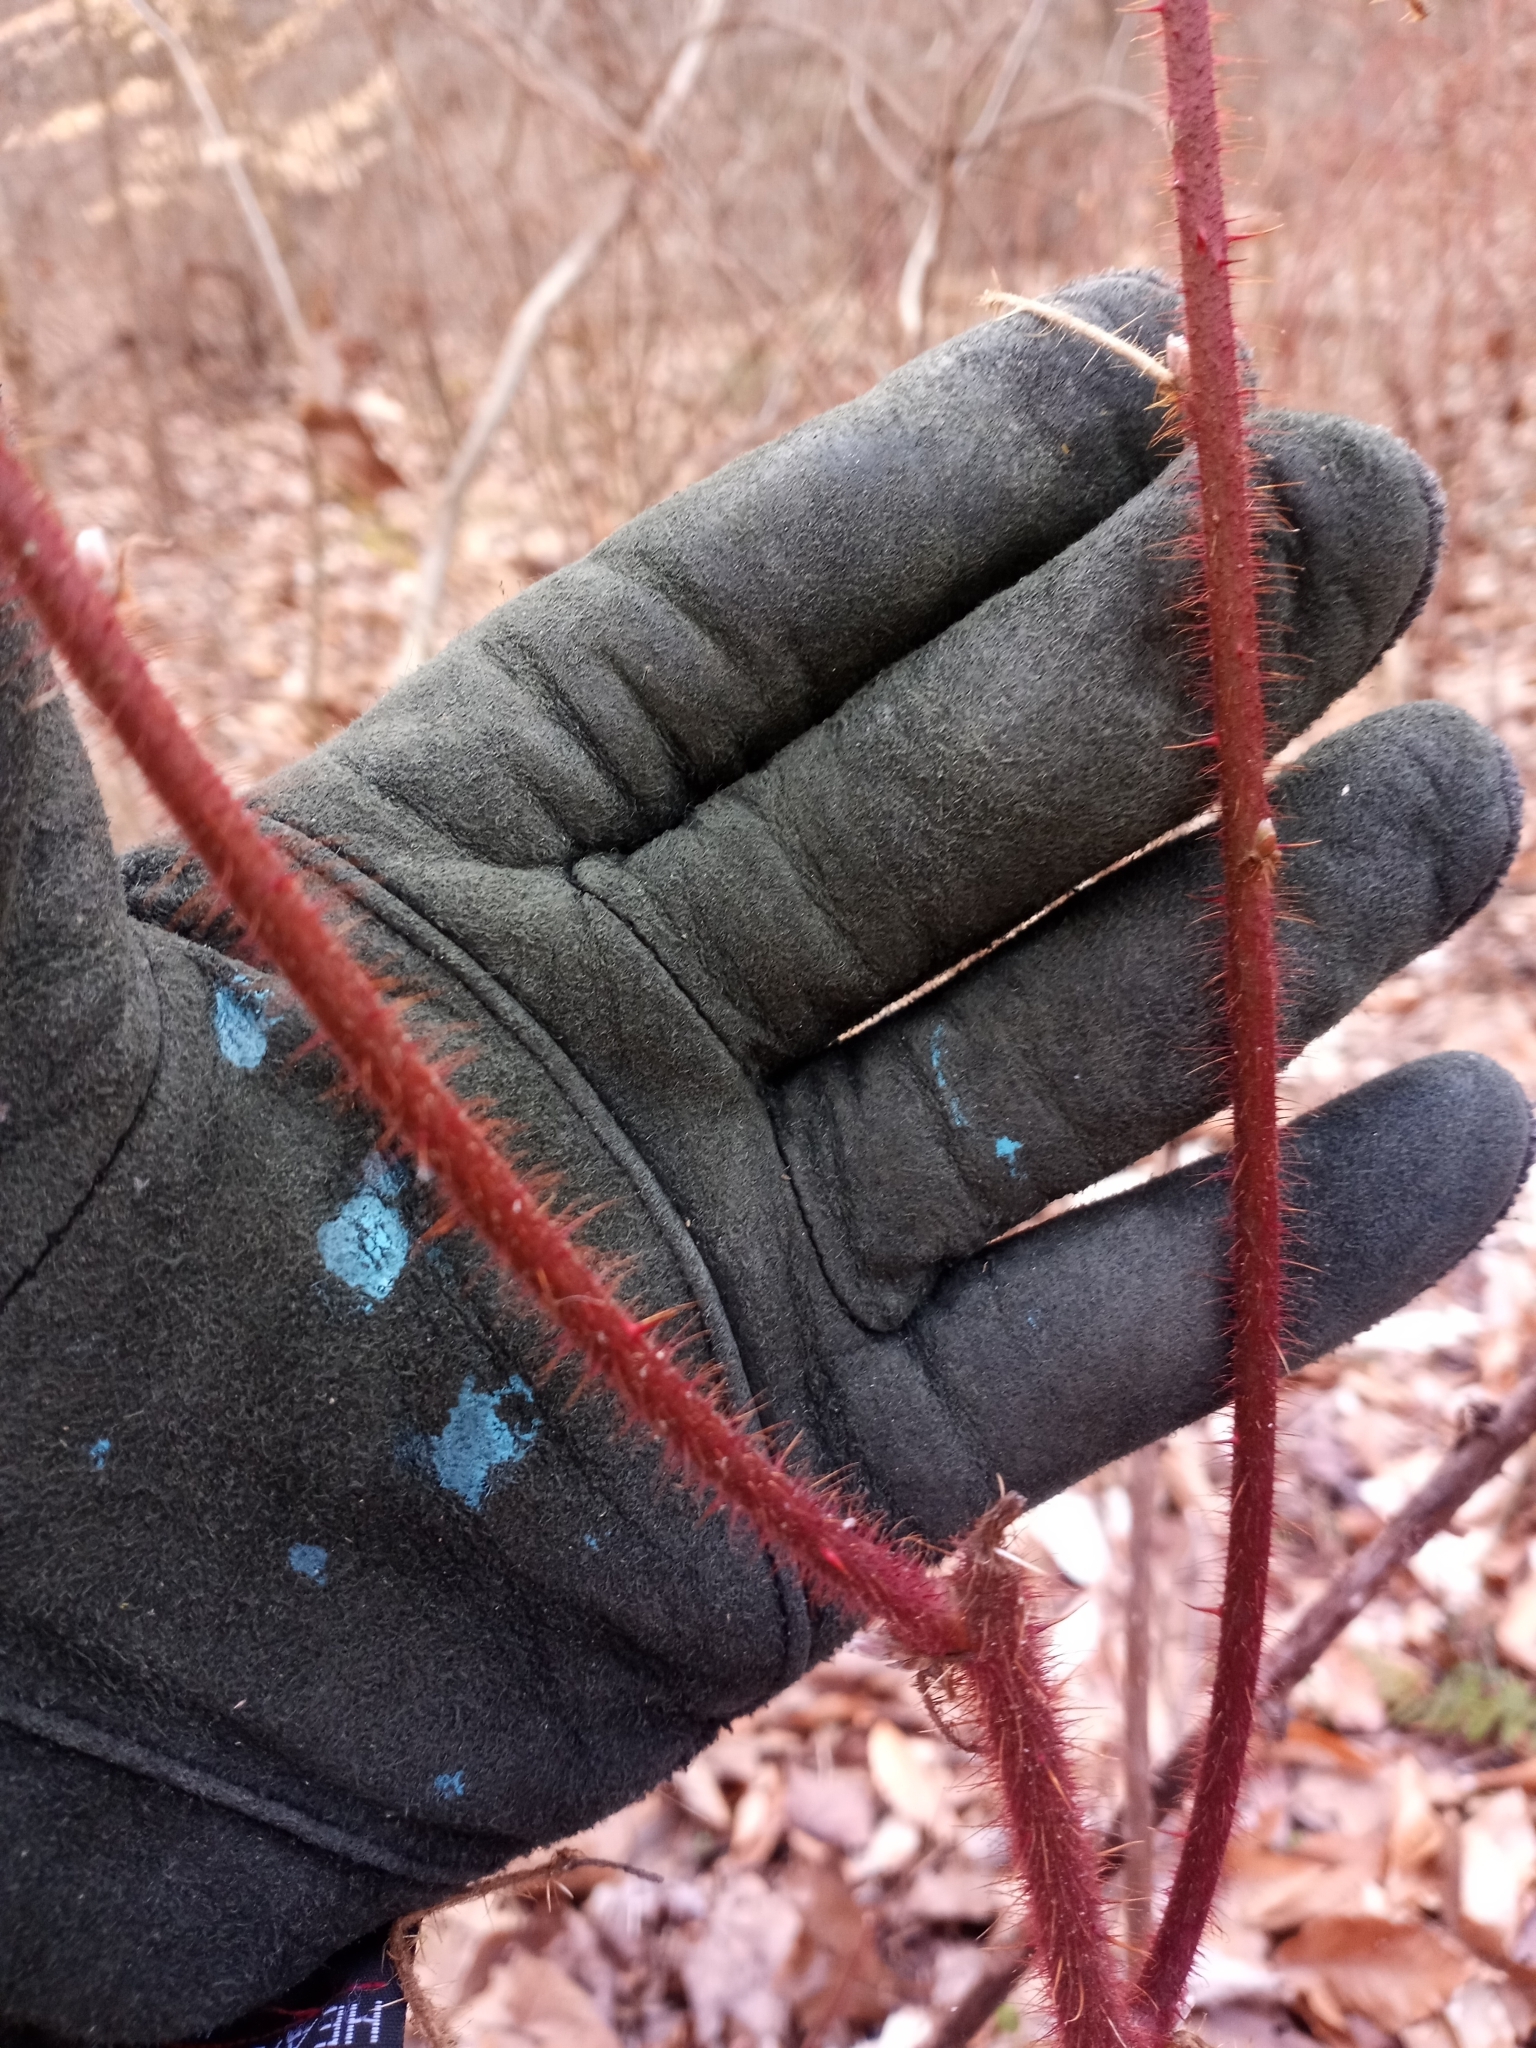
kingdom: Plantae
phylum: Tracheophyta
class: Magnoliopsida
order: Rosales
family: Rosaceae
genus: Rubus
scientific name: Rubus phoenicolasius
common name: Japanese wineberry
